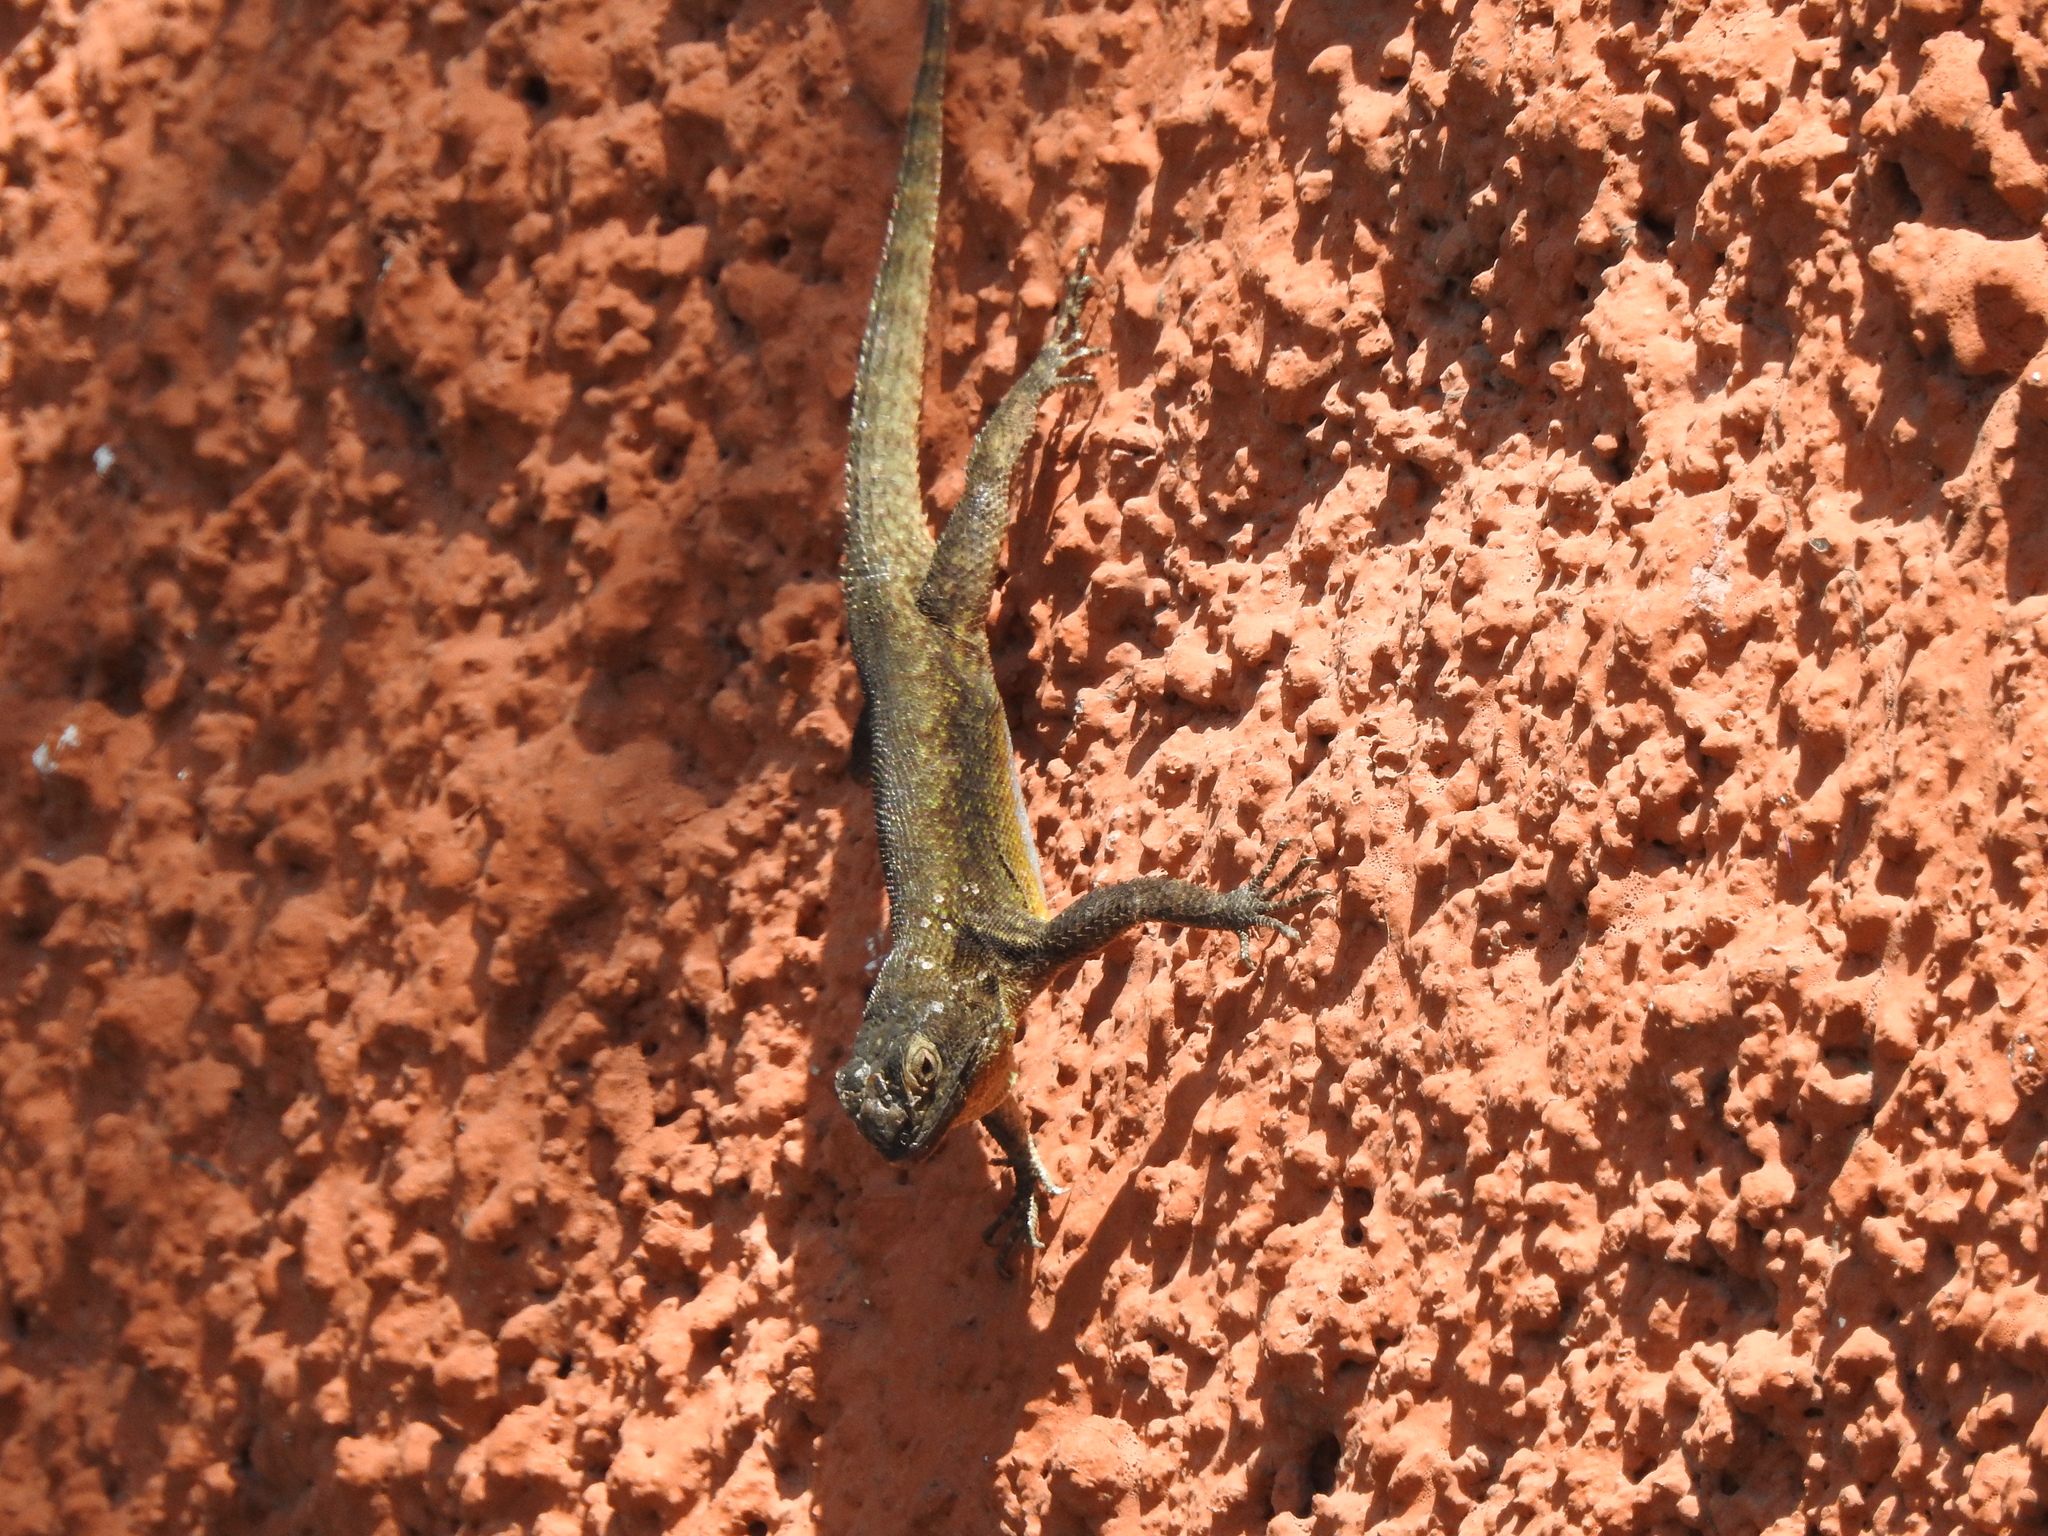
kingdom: Animalia
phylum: Chordata
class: Squamata
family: Phrynosomatidae
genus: Sceloporus
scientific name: Sceloporus grammicus
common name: Mesquite lizard
